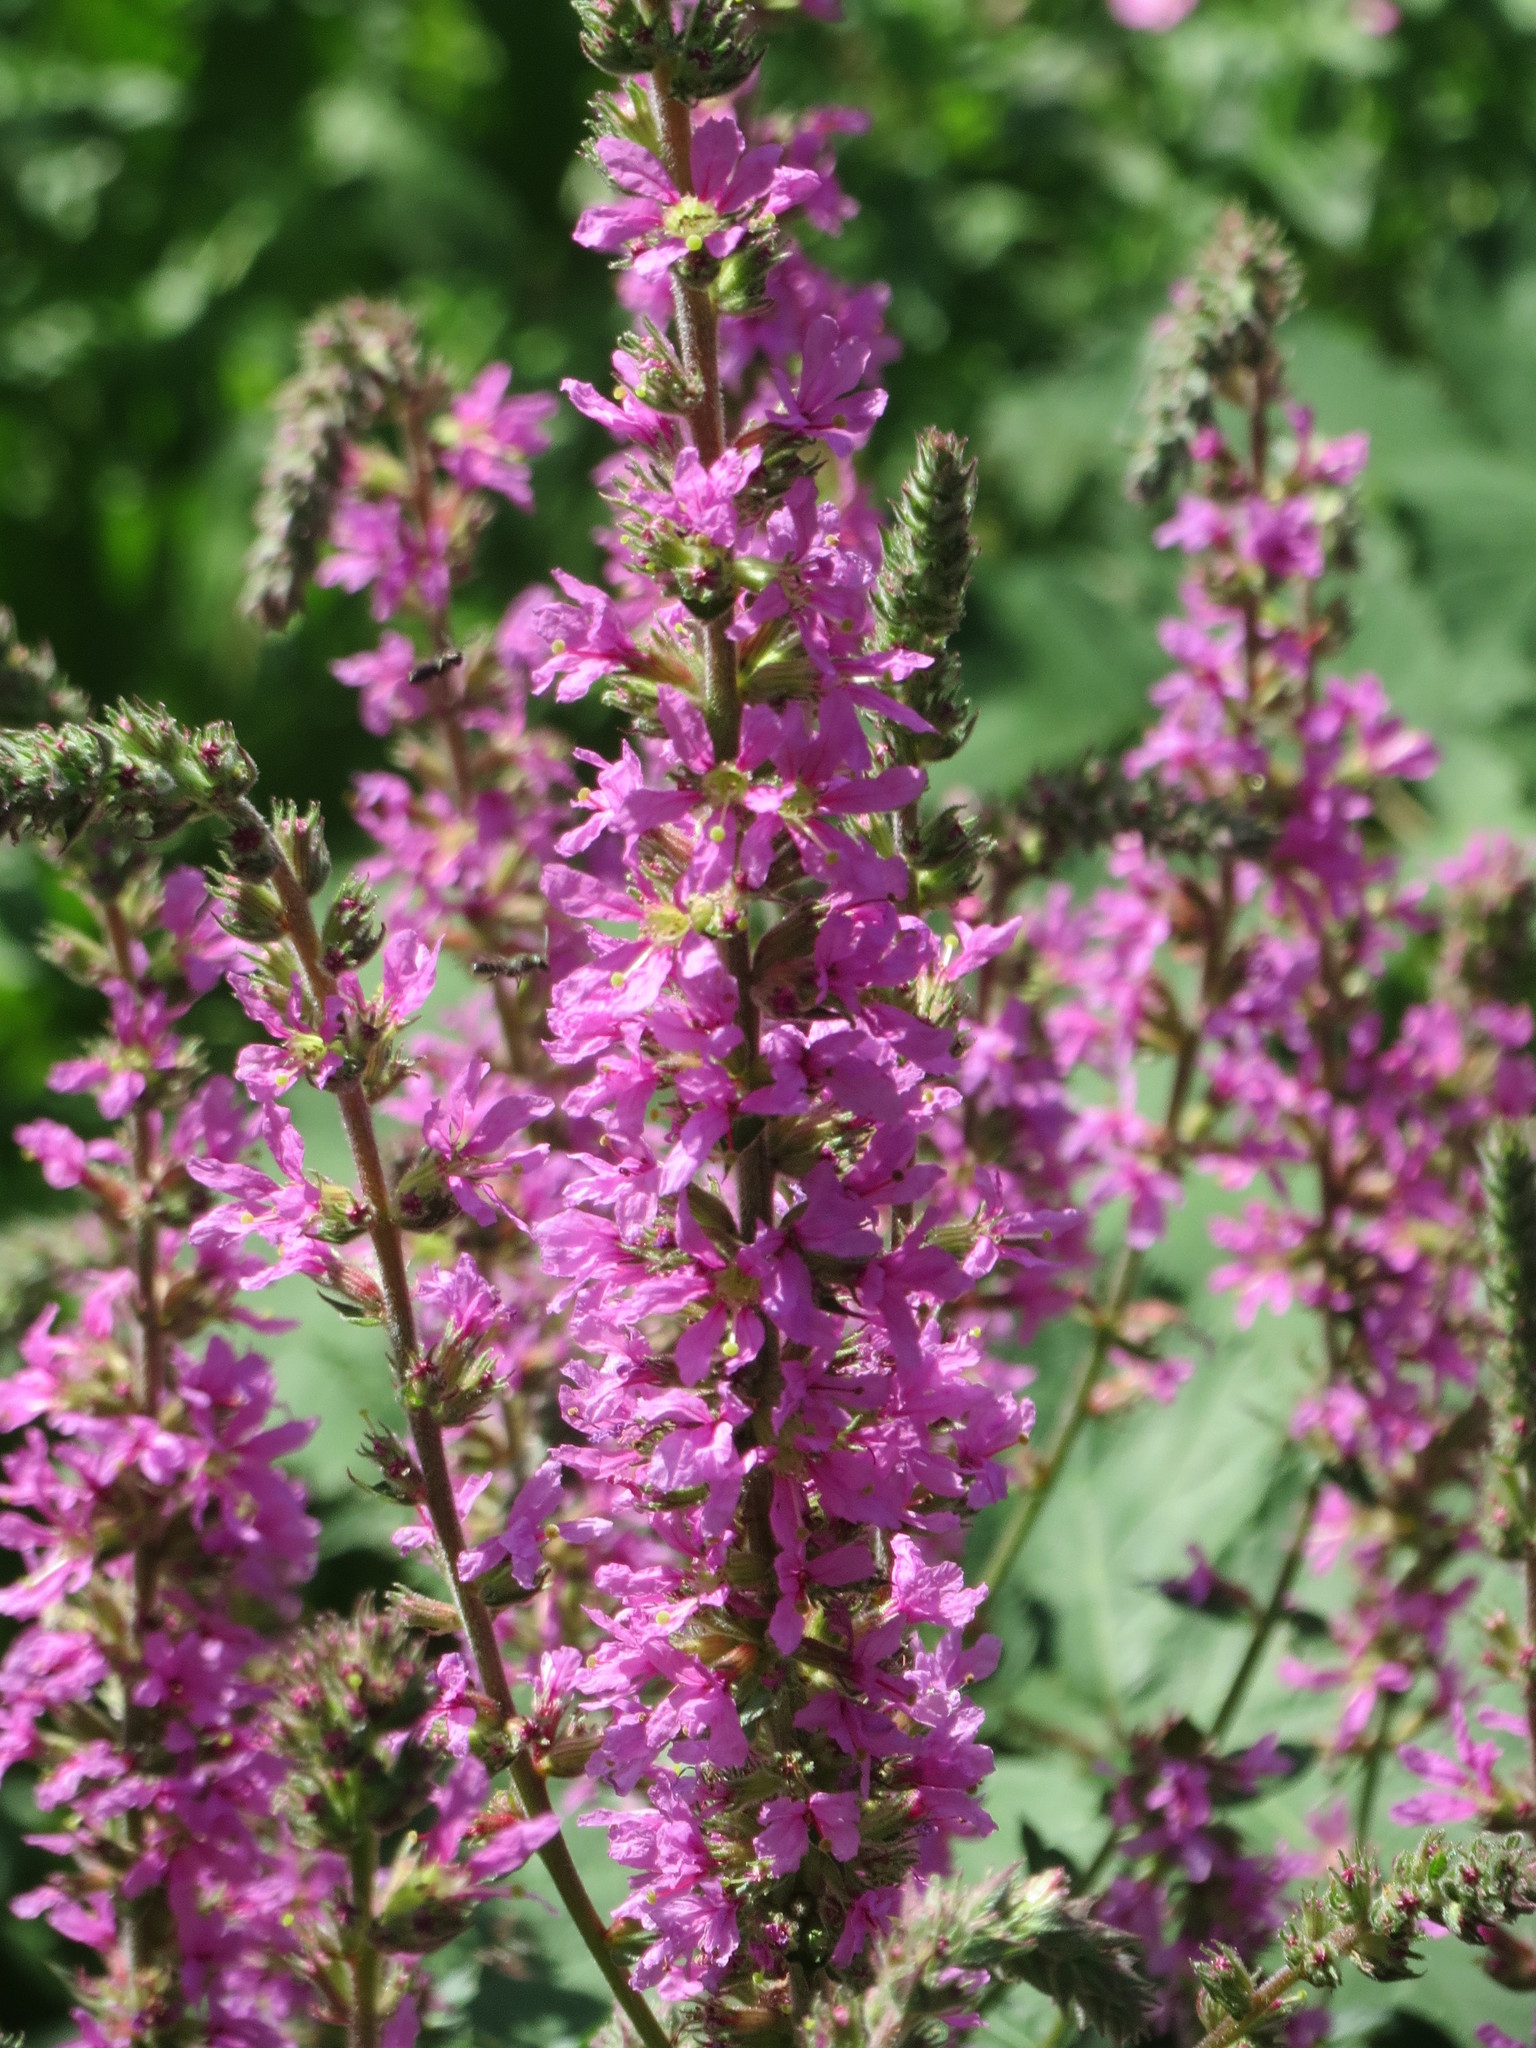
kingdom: Plantae
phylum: Tracheophyta
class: Magnoliopsida
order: Myrtales
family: Lythraceae
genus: Lythrum
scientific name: Lythrum salicaria
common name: Purple loosestrife
